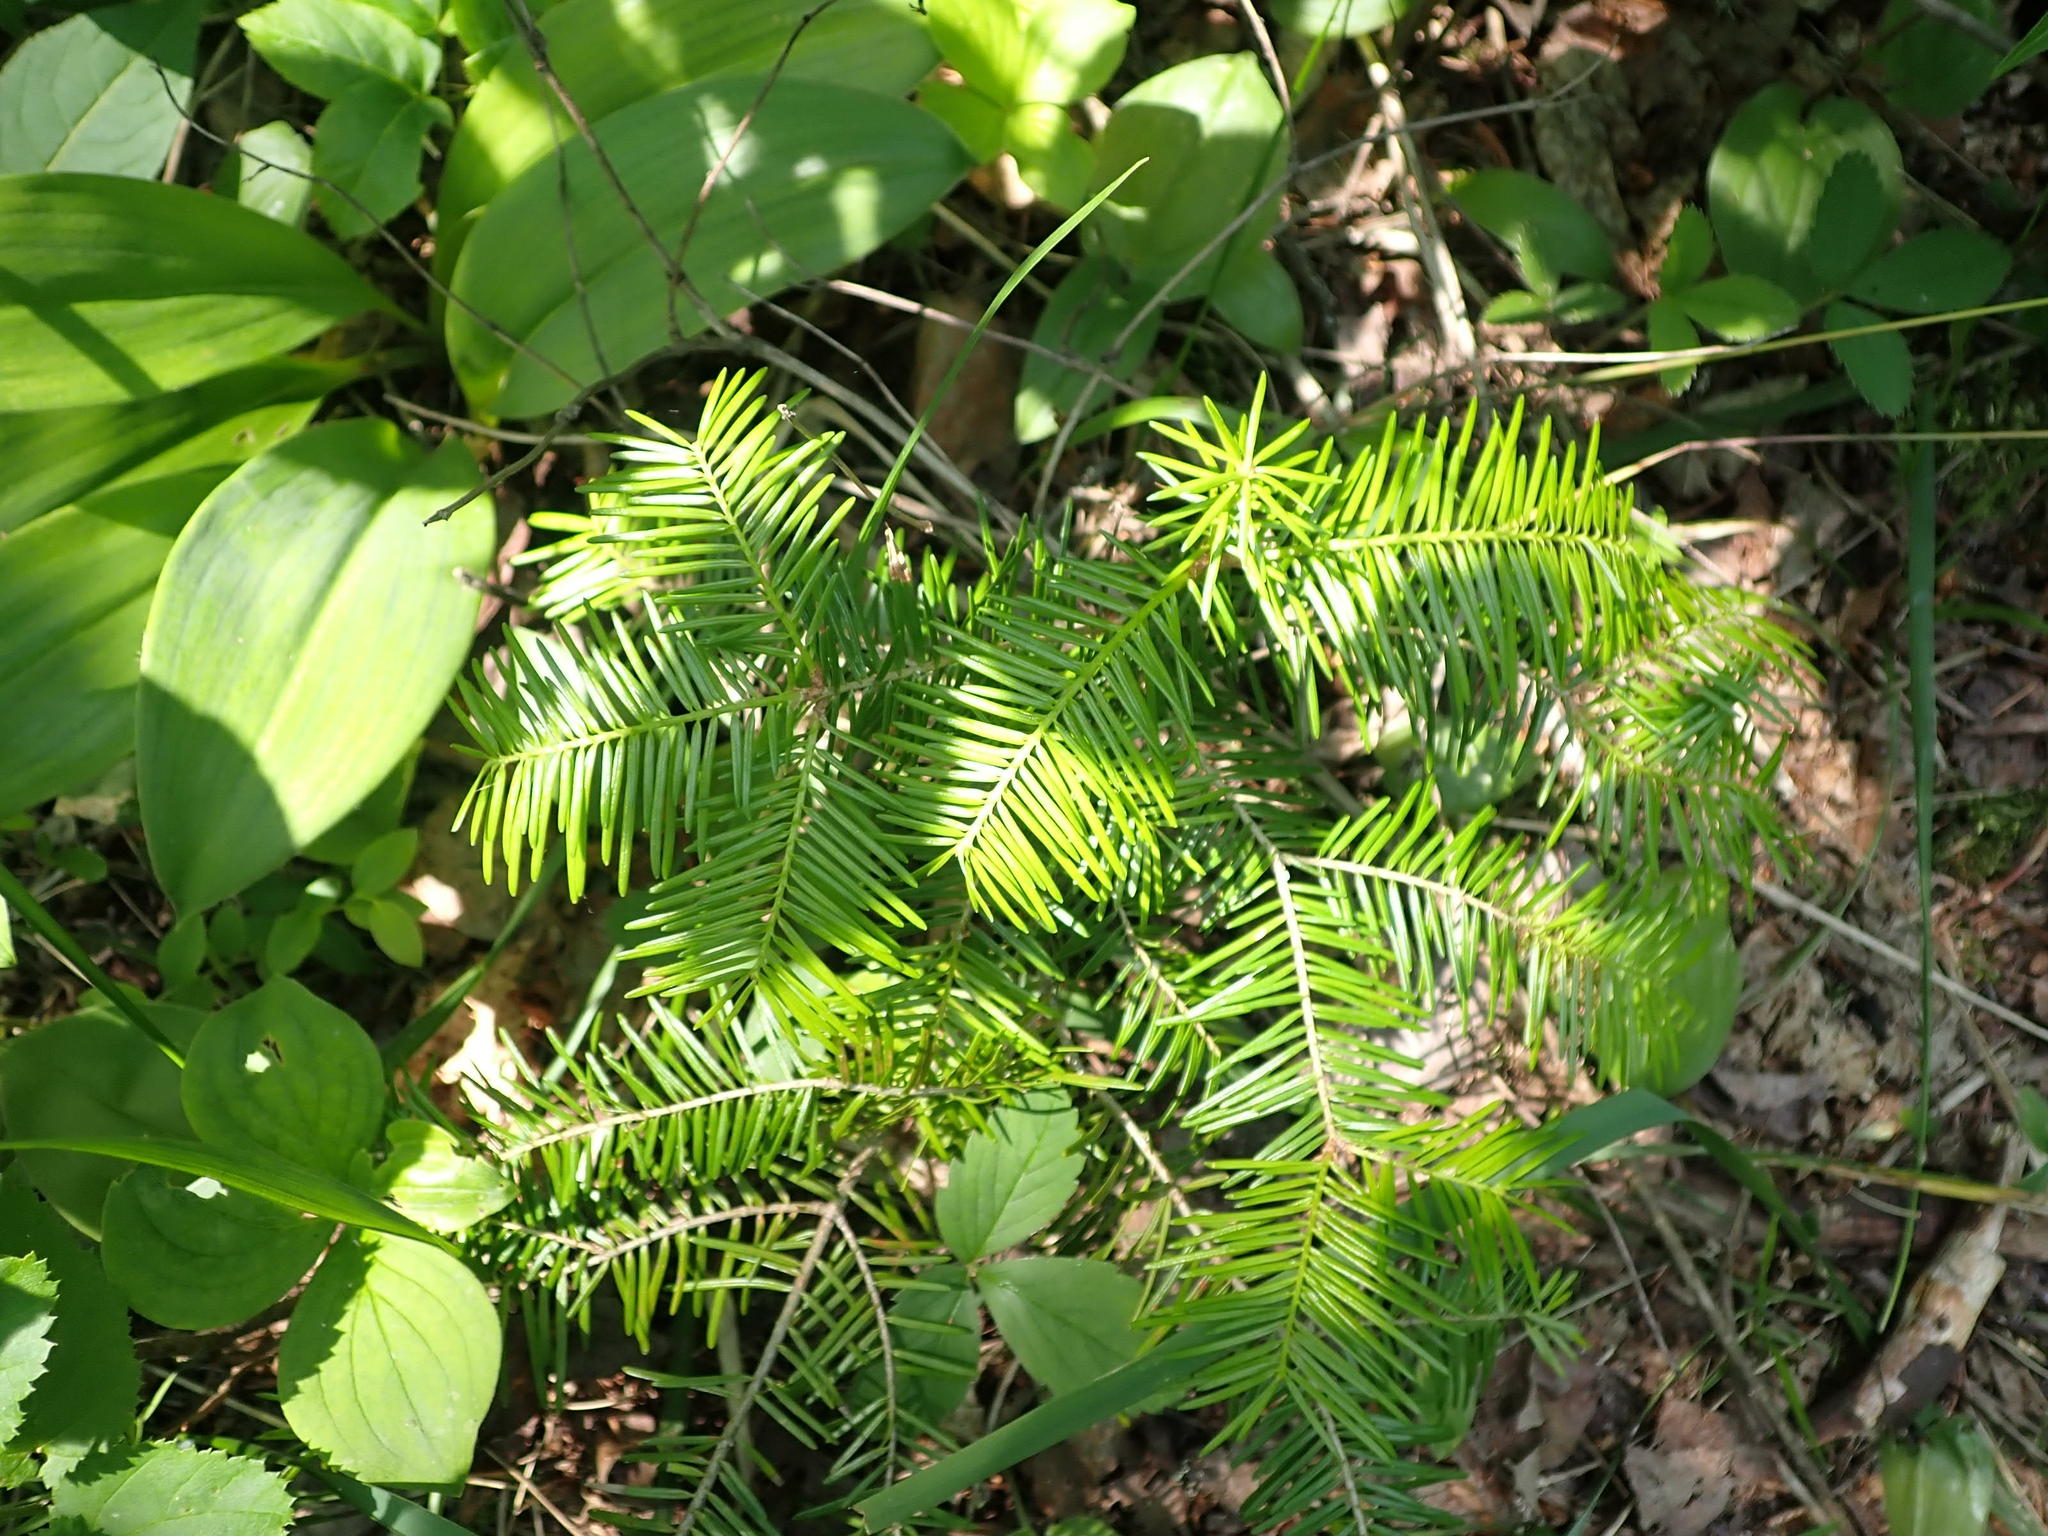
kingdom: Plantae
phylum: Tracheophyta
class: Pinopsida
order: Pinales
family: Pinaceae
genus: Abies
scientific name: Abies balsamea
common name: Balsam fir
